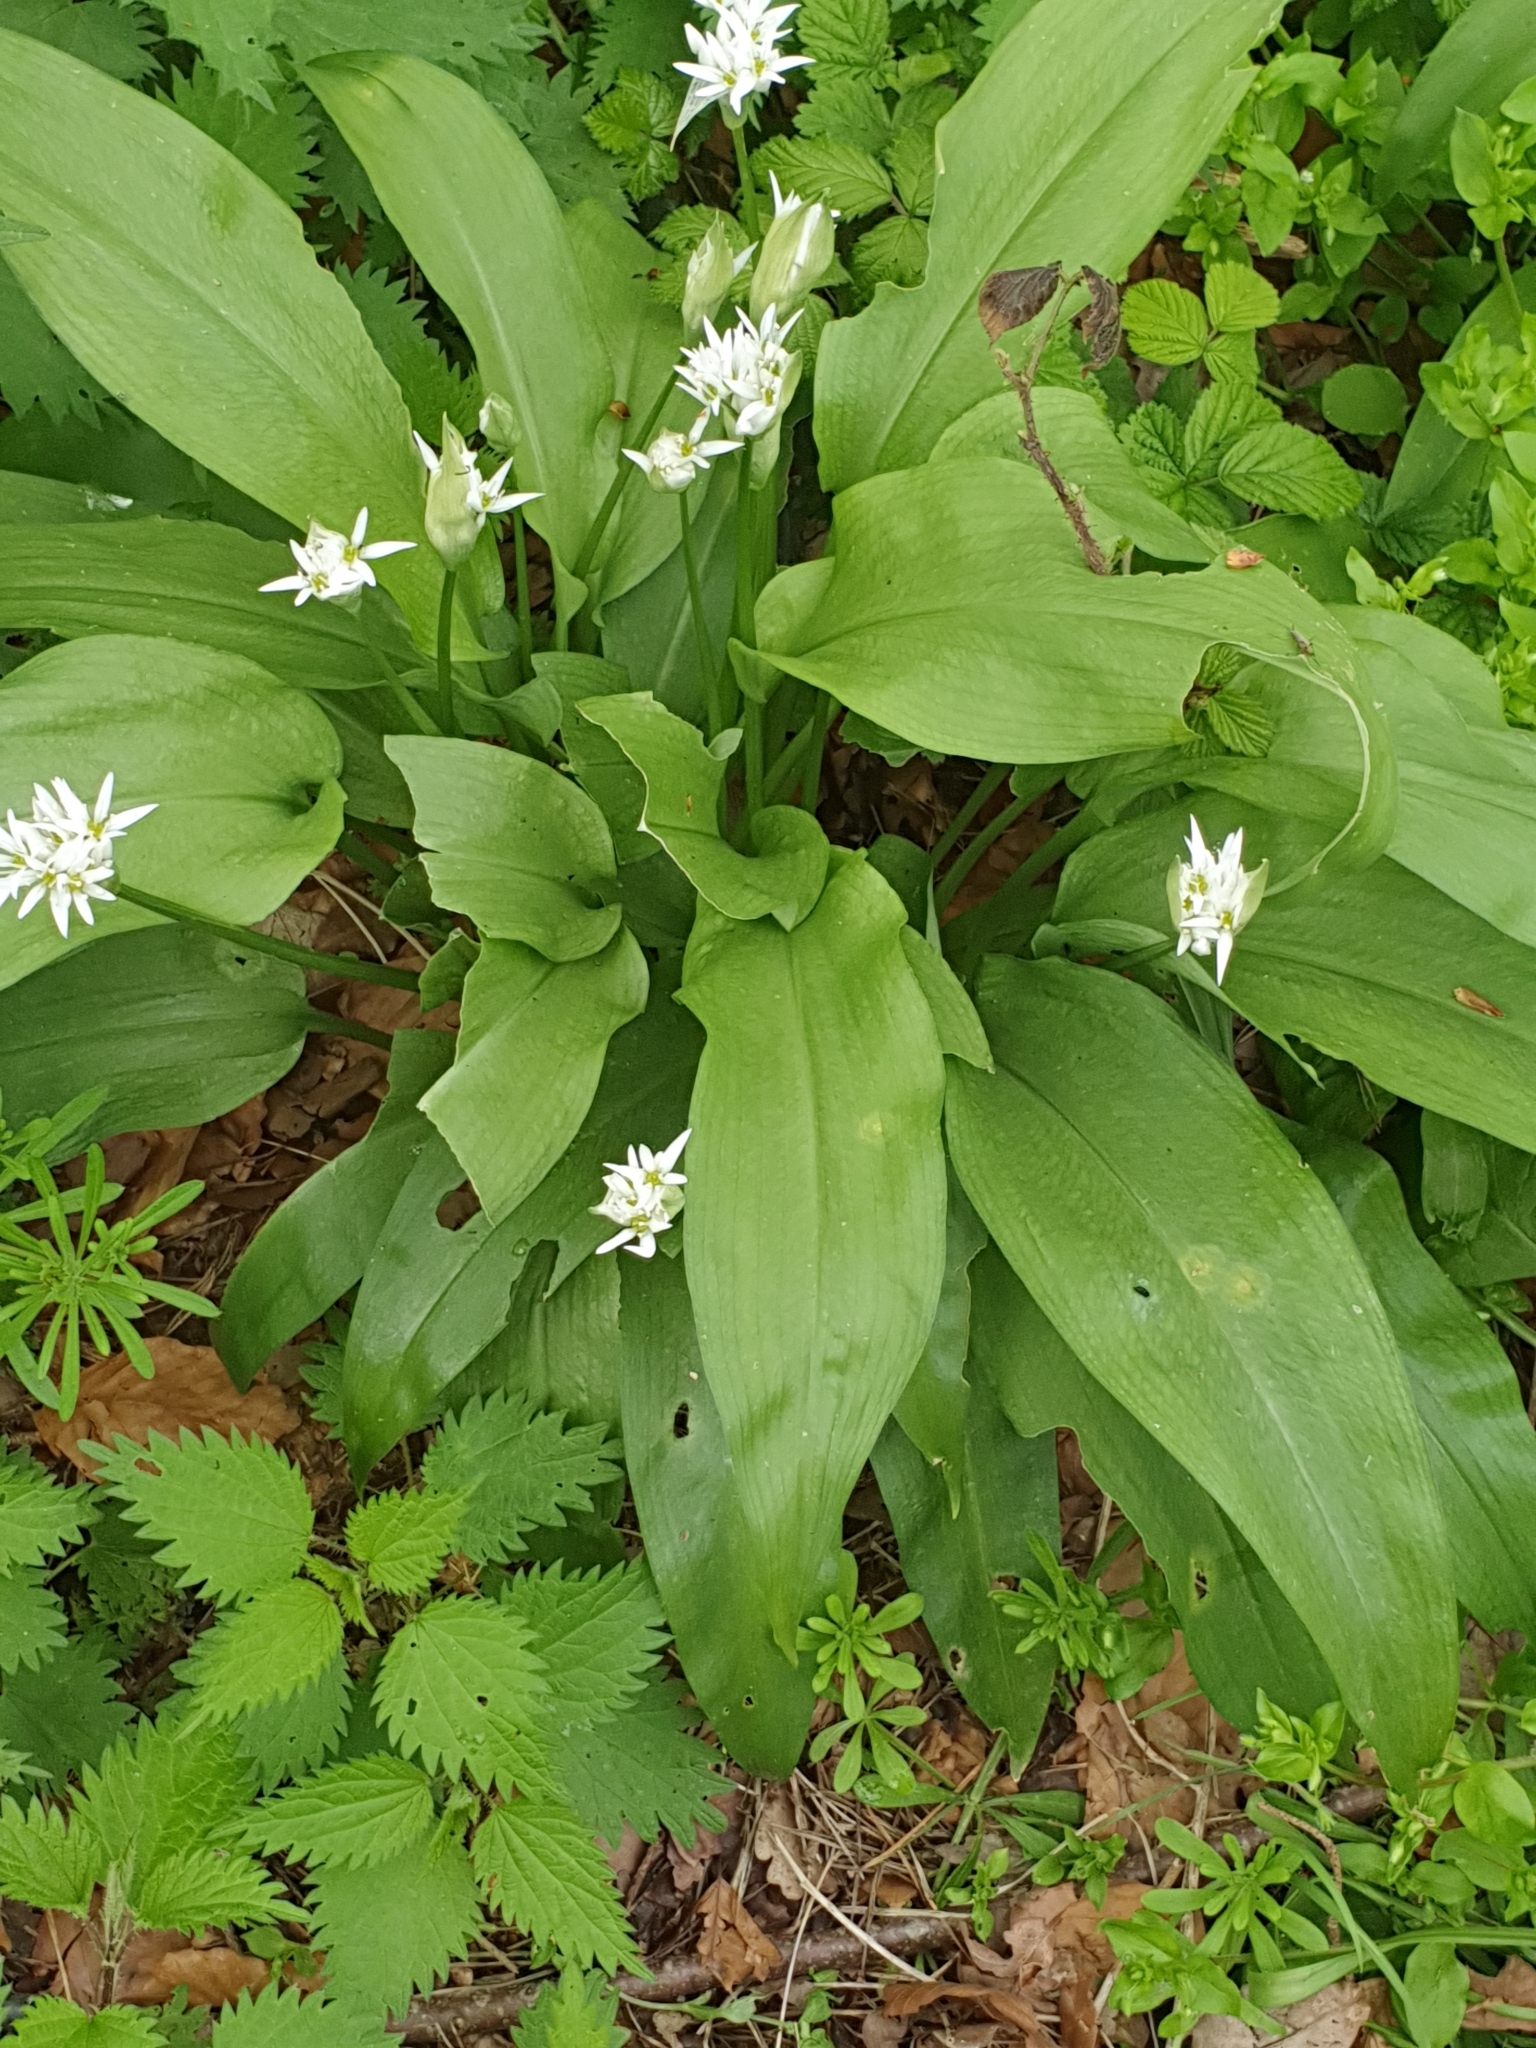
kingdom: Plantae
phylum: Tracheophyta
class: Liliopsida
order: Asparagales
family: Amaryllidaceae
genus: Allium
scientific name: Allium ursinum
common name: Ramsons
